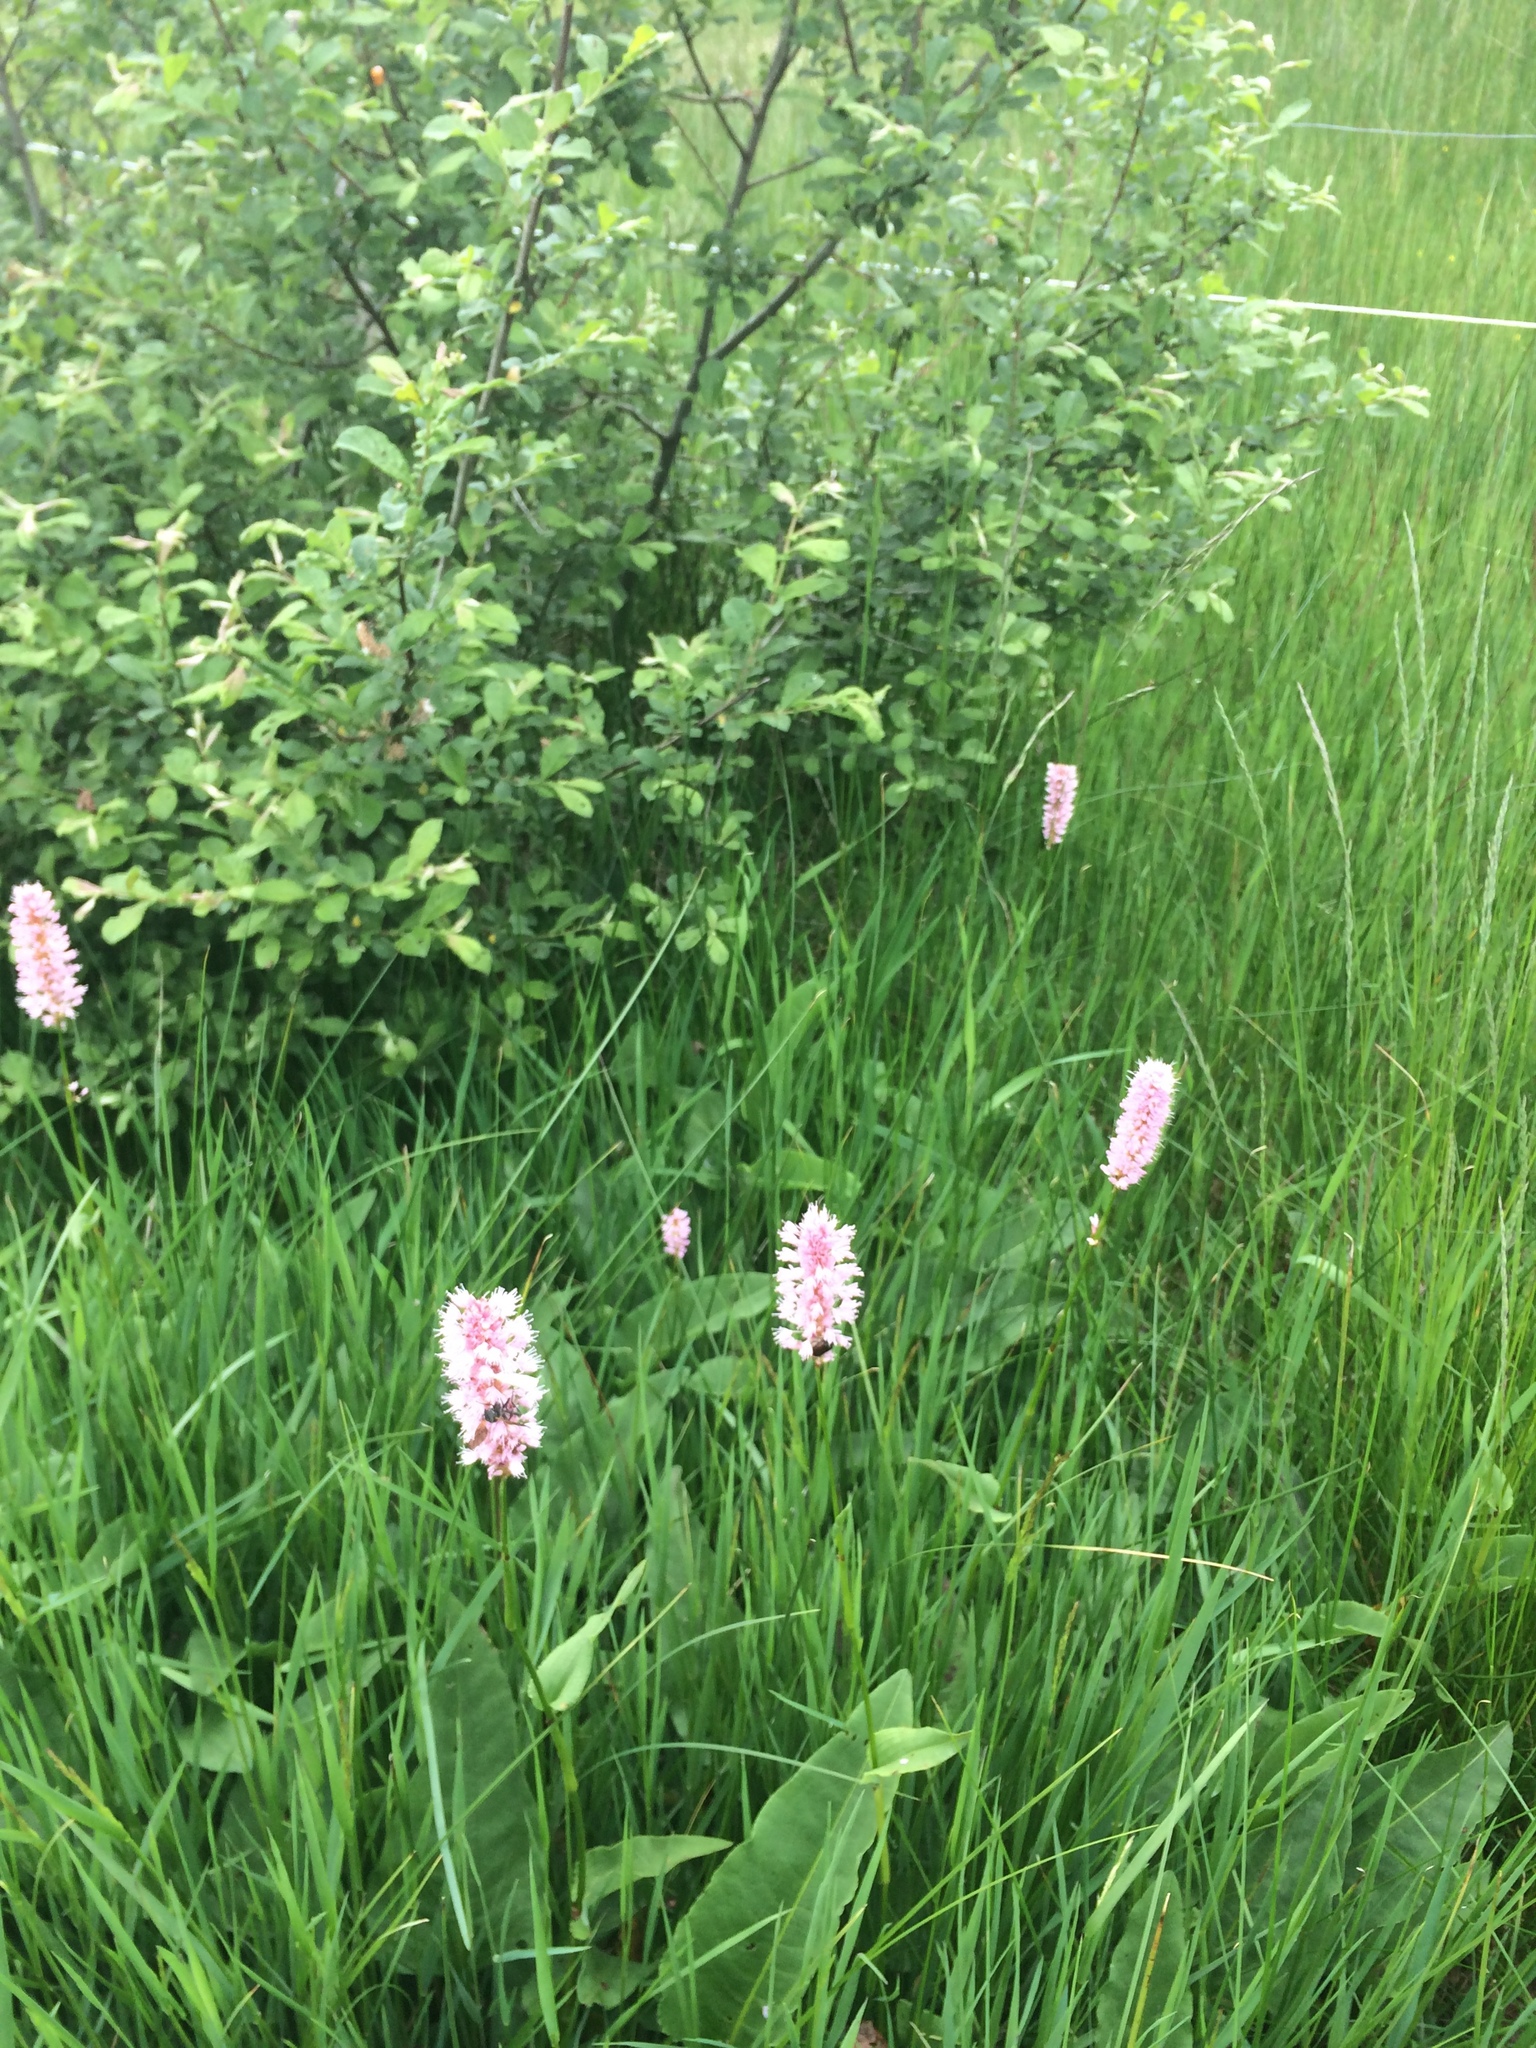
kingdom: Plantae
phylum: Tracheophyta
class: Magnoliopsida
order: Caryophyllales
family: Polygonaceae
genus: Bistorta
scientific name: Bistorta officinalis
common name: Common bistort
